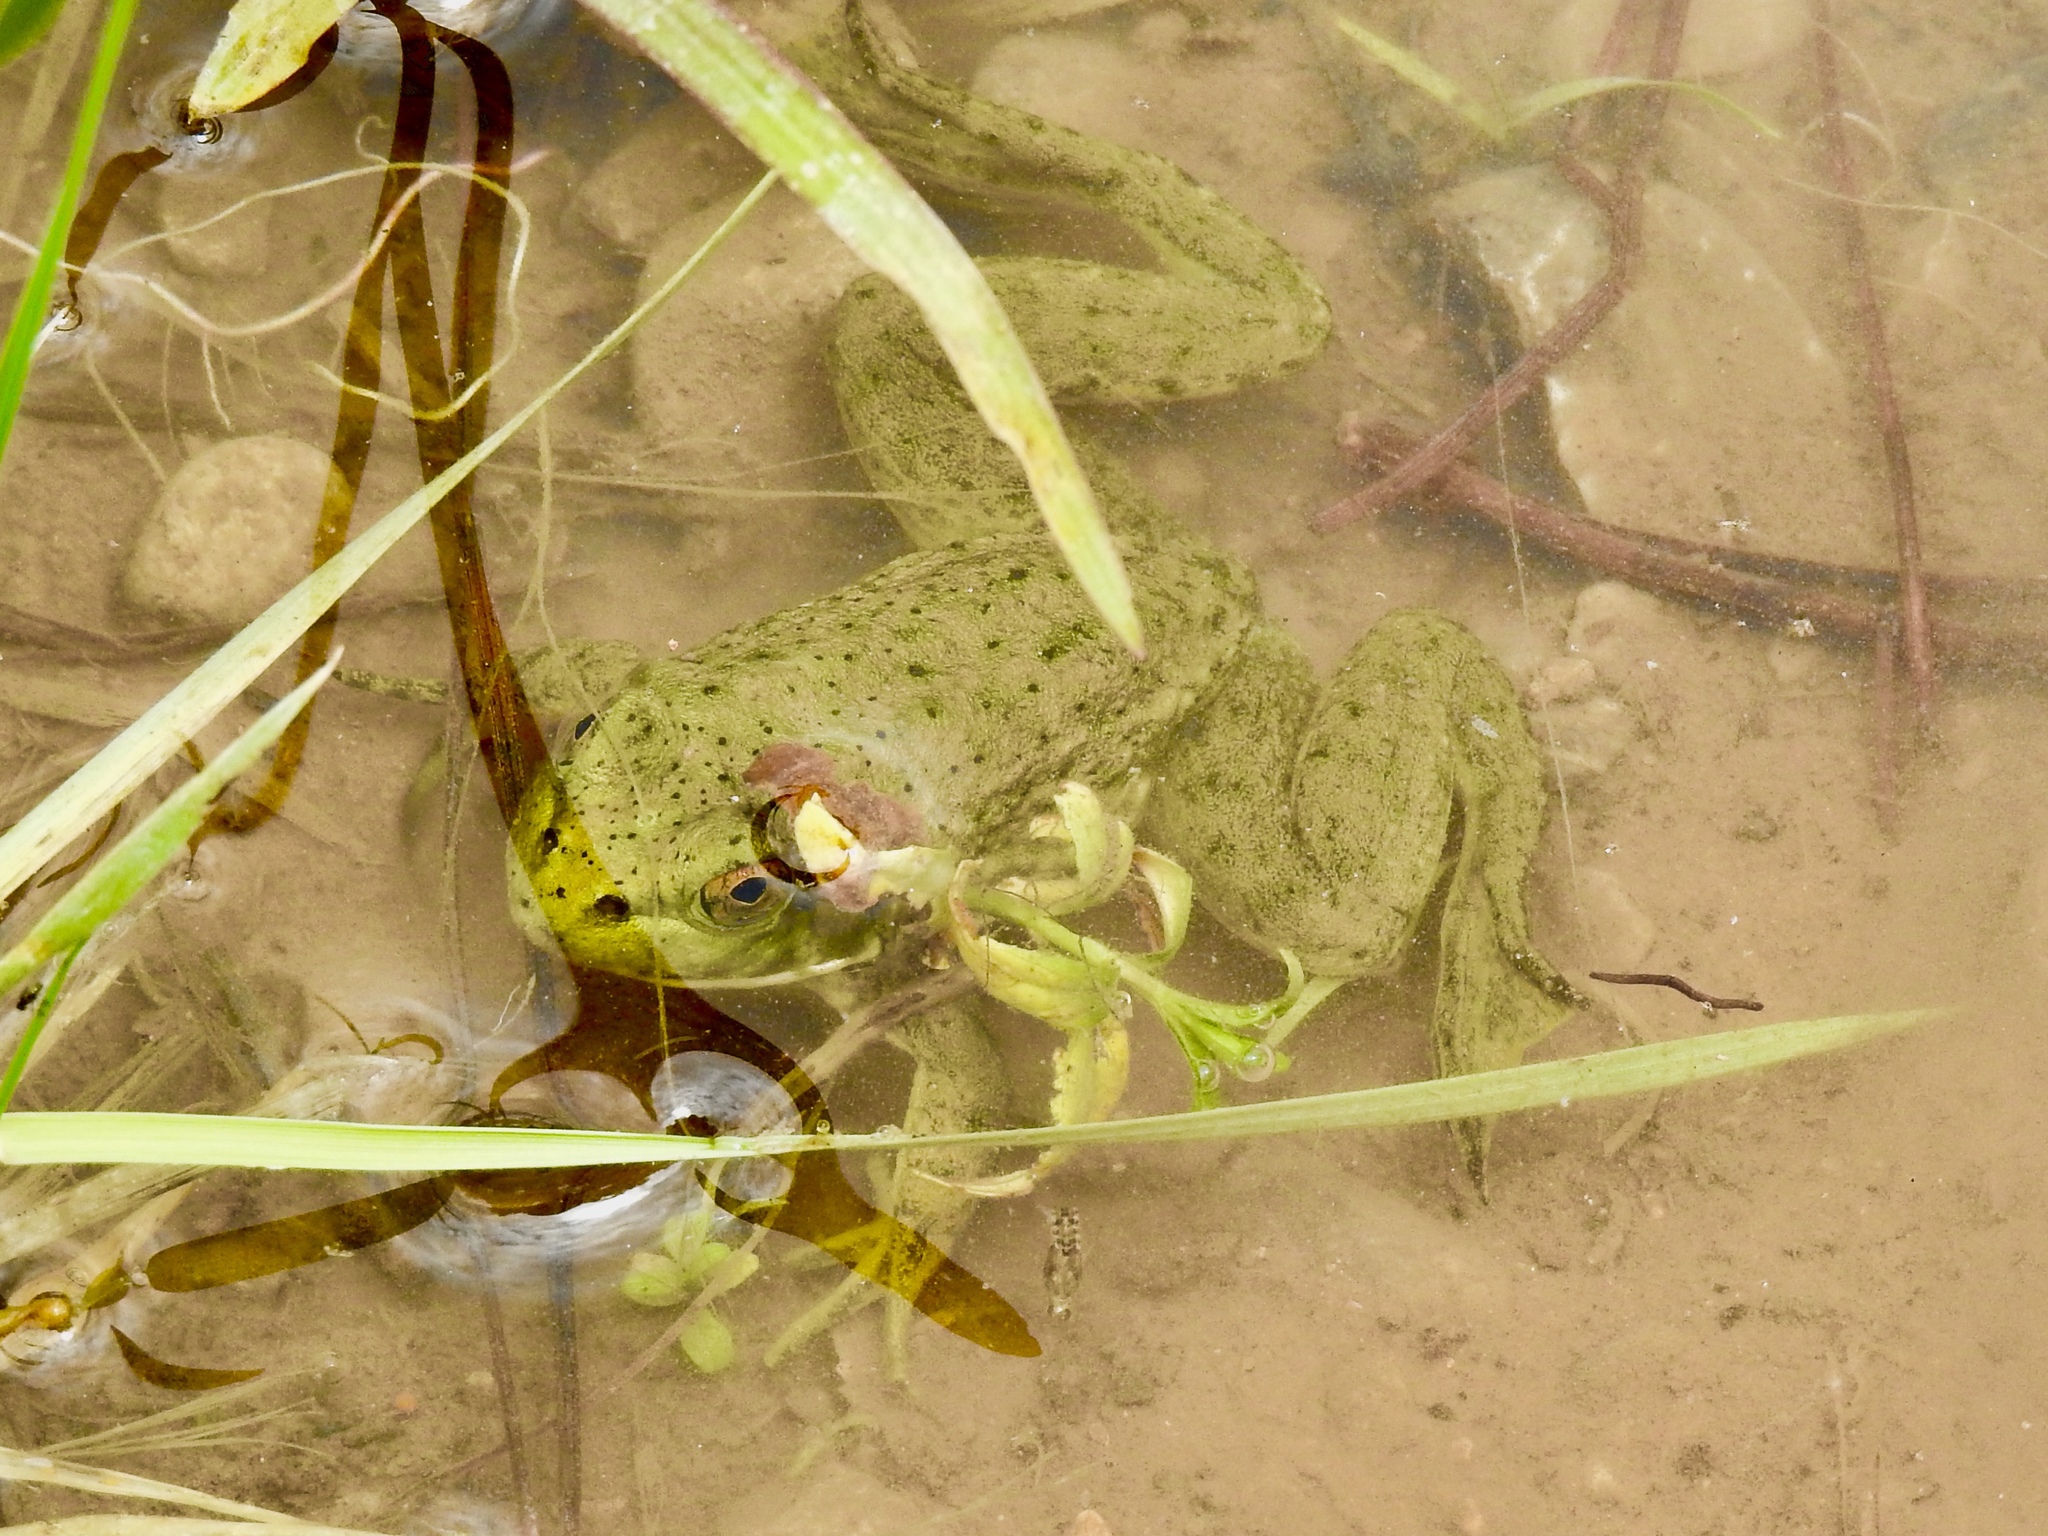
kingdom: Animalia
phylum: Chordata
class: Amphibia
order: Anura
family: Ranidae
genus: Lithobates
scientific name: Lithobates catesbeianus
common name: American bullfrog
